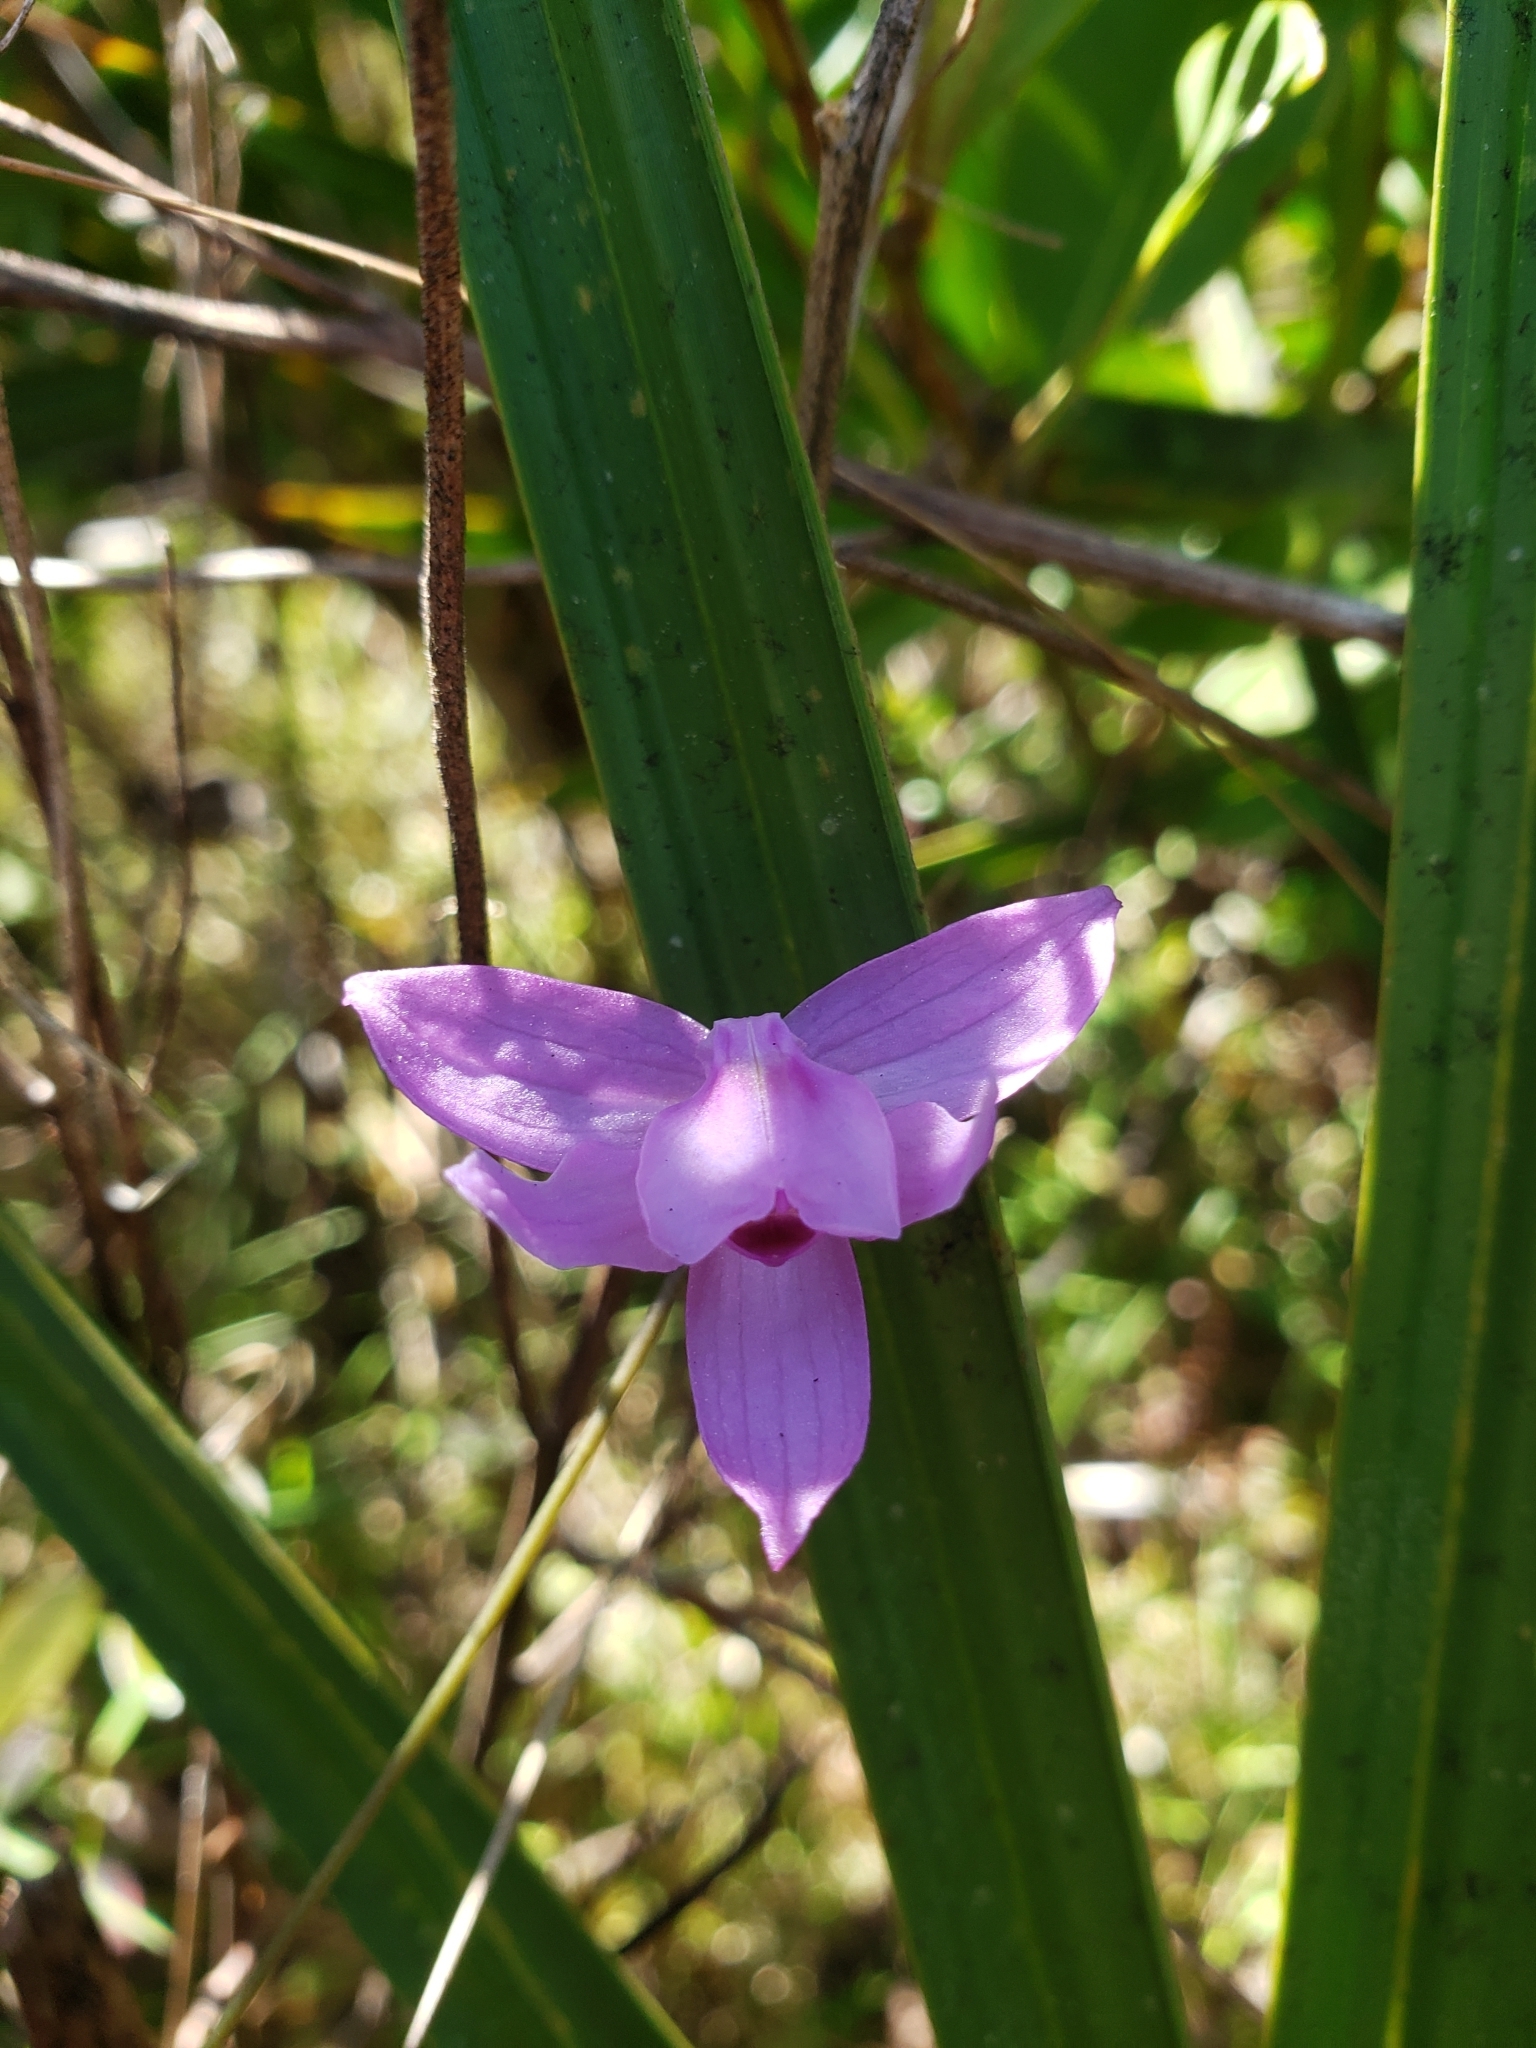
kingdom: Plantae
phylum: Tracheophyta
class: Liliopsida
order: Asparagales
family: Orchidaceae
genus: Calopogon
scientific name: Calopogon tuberosus
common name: Grass-pink
